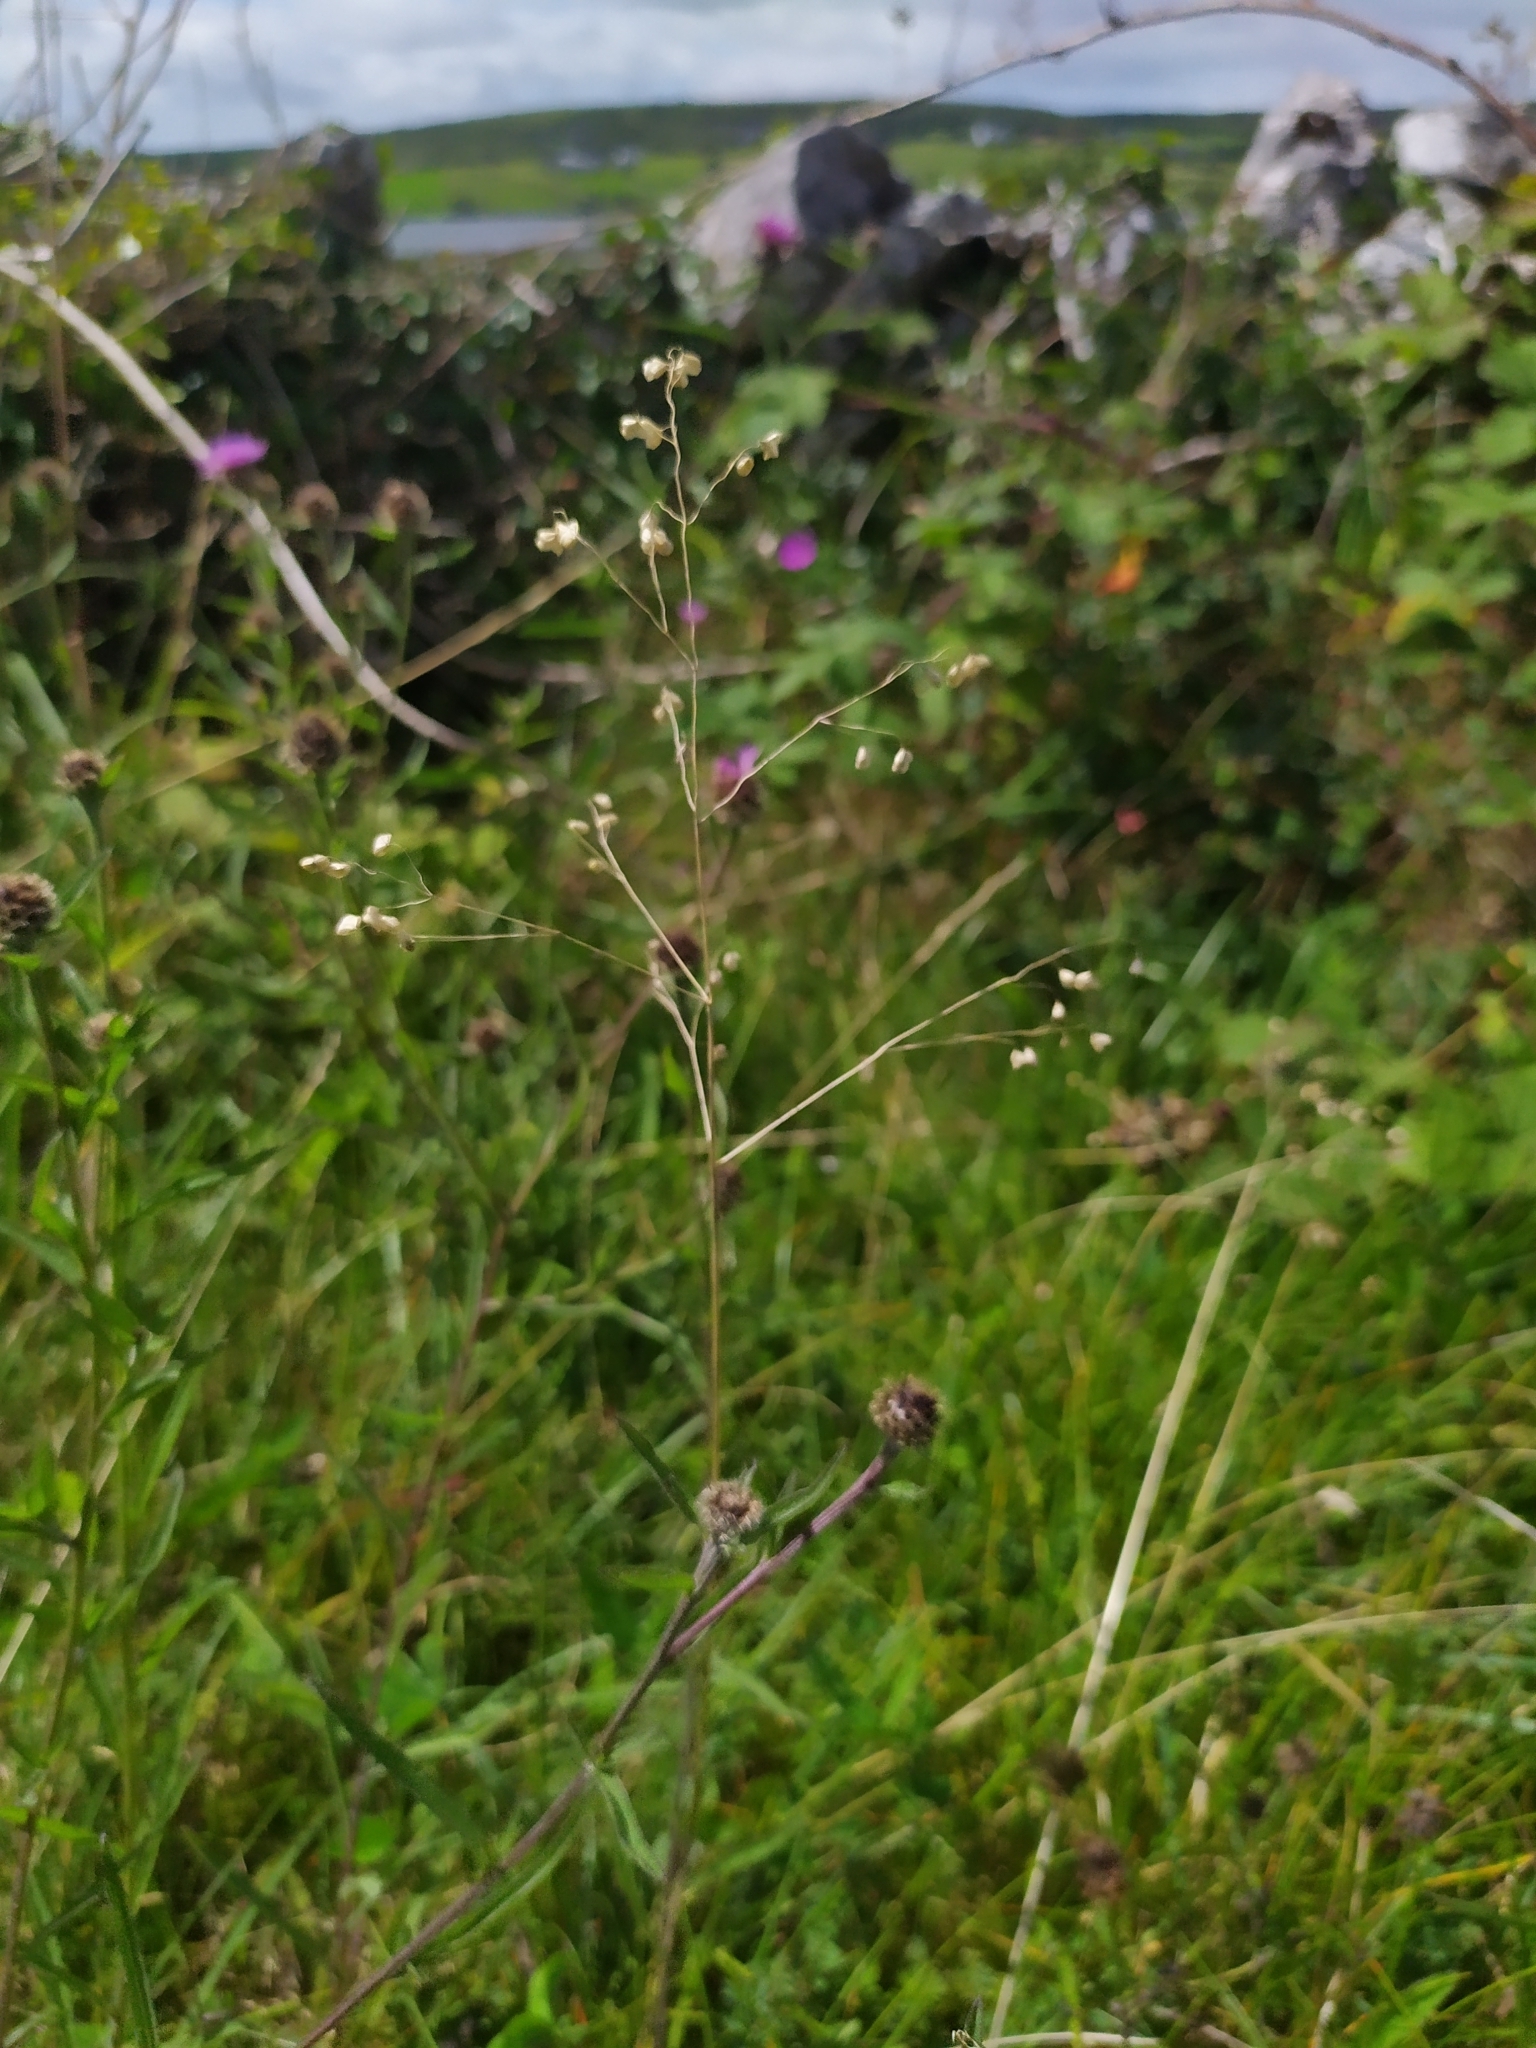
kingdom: Plantae
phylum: Tracheophyta
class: Liliopsida
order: Poales
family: Poaceae
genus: Briza
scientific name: Briza media
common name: Quaking grass
